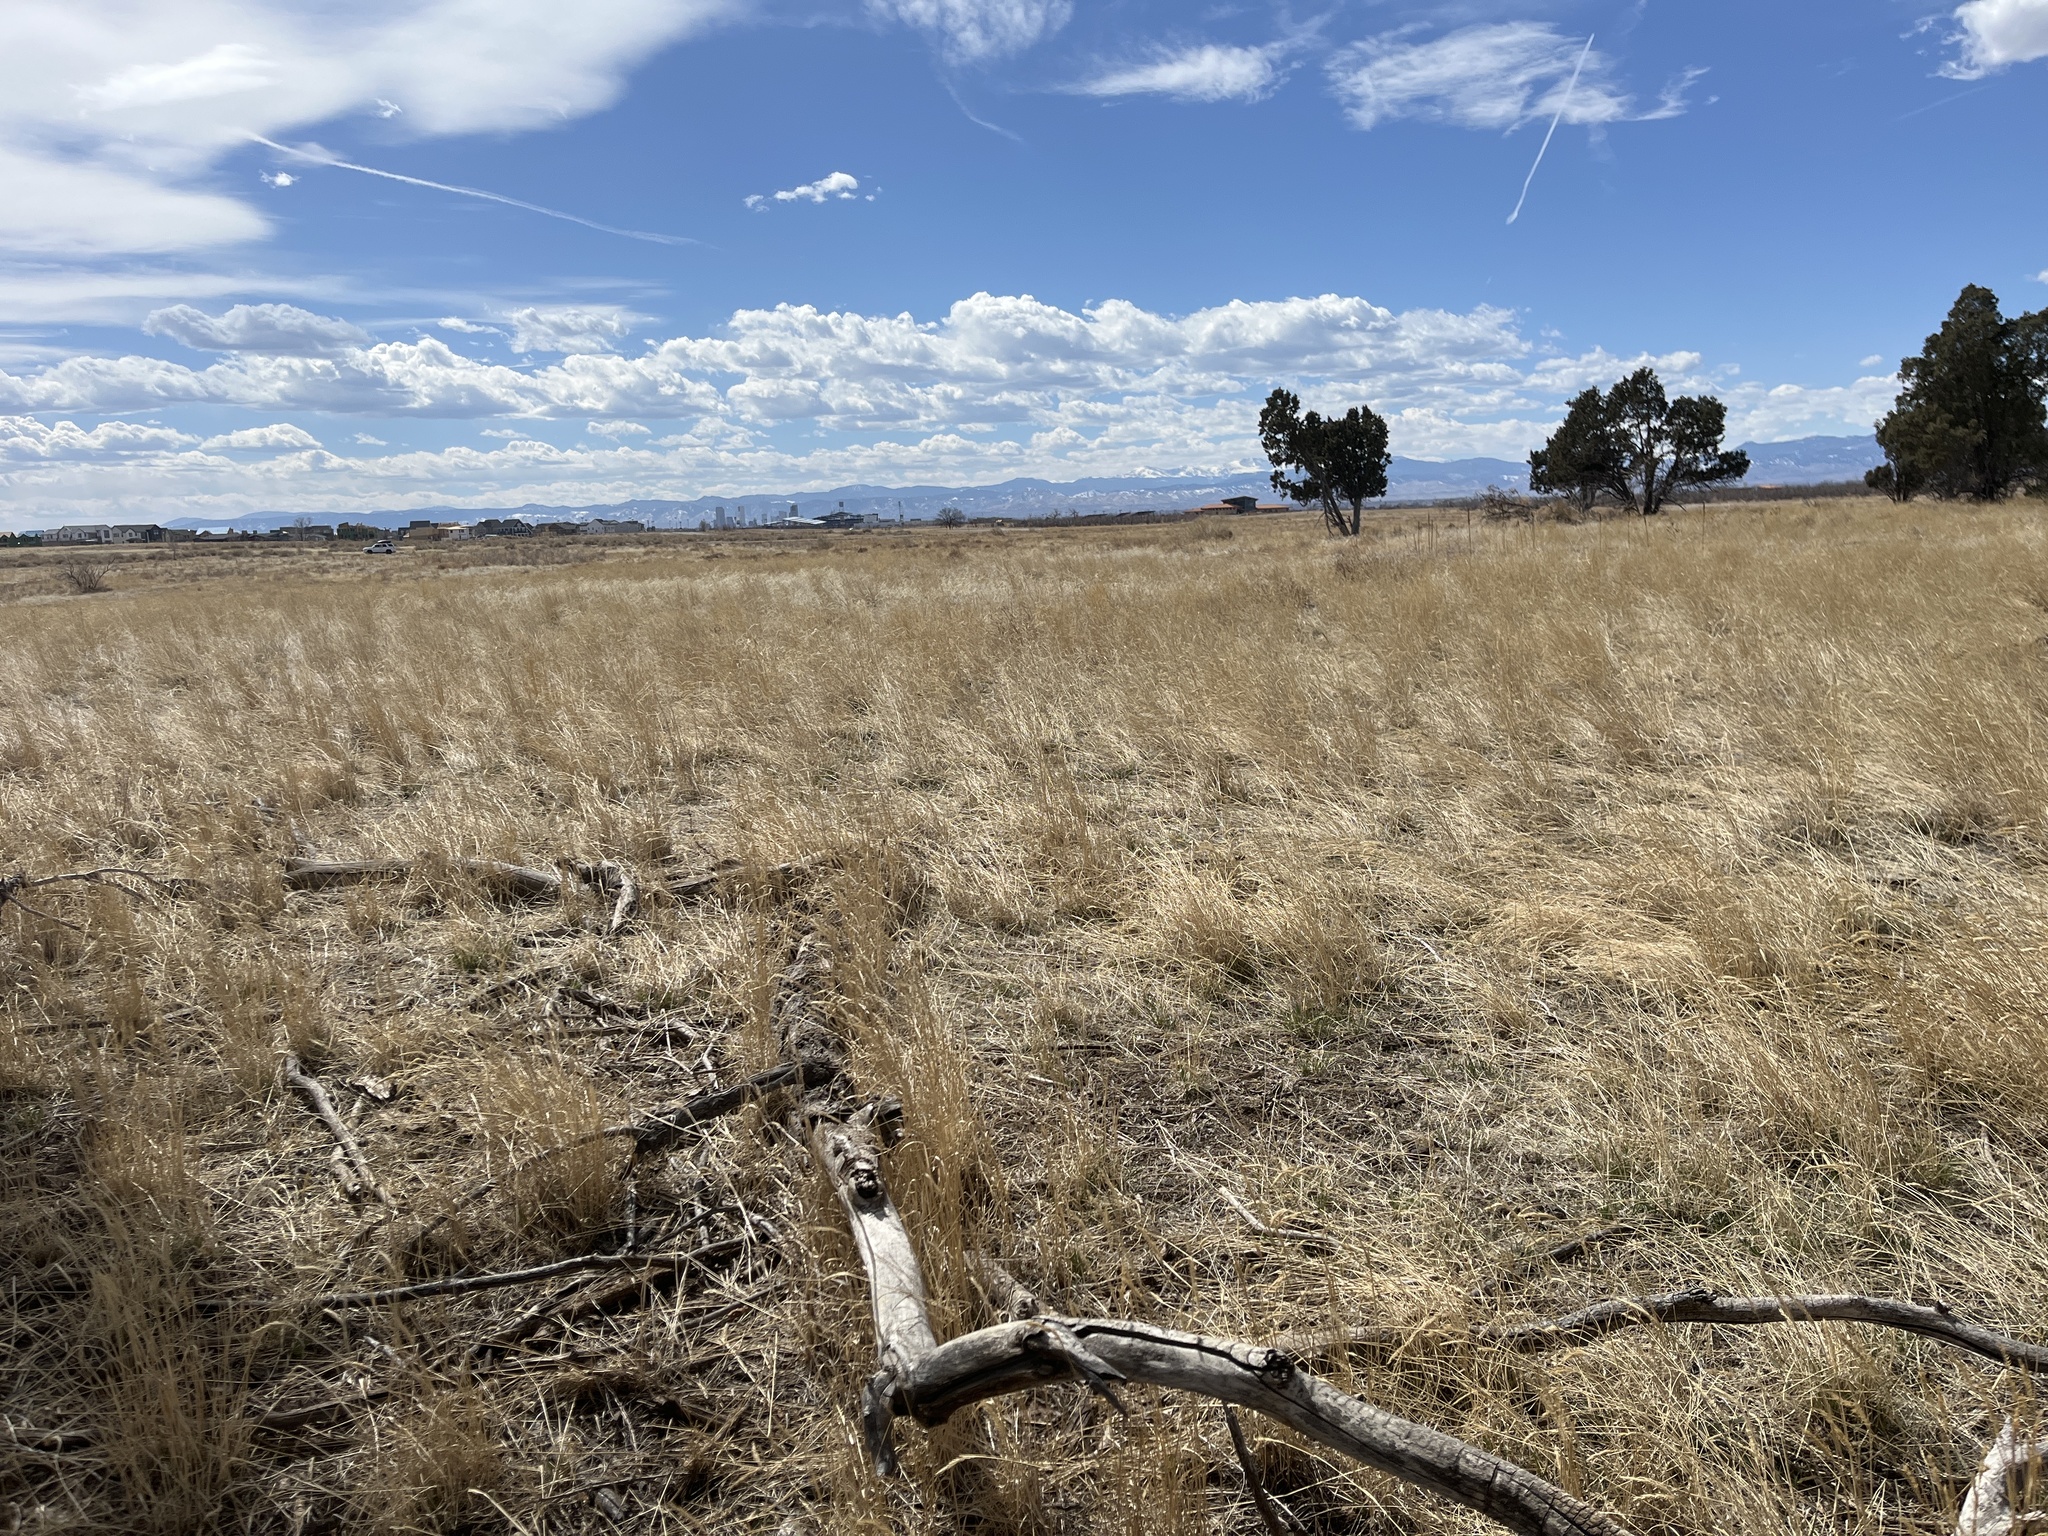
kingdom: Plantae
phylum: Tracheophyta
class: Liliopsida
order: Poales
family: Poaceae
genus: Agropyron
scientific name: Agropyron cristatum
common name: Crested wheatgrass
